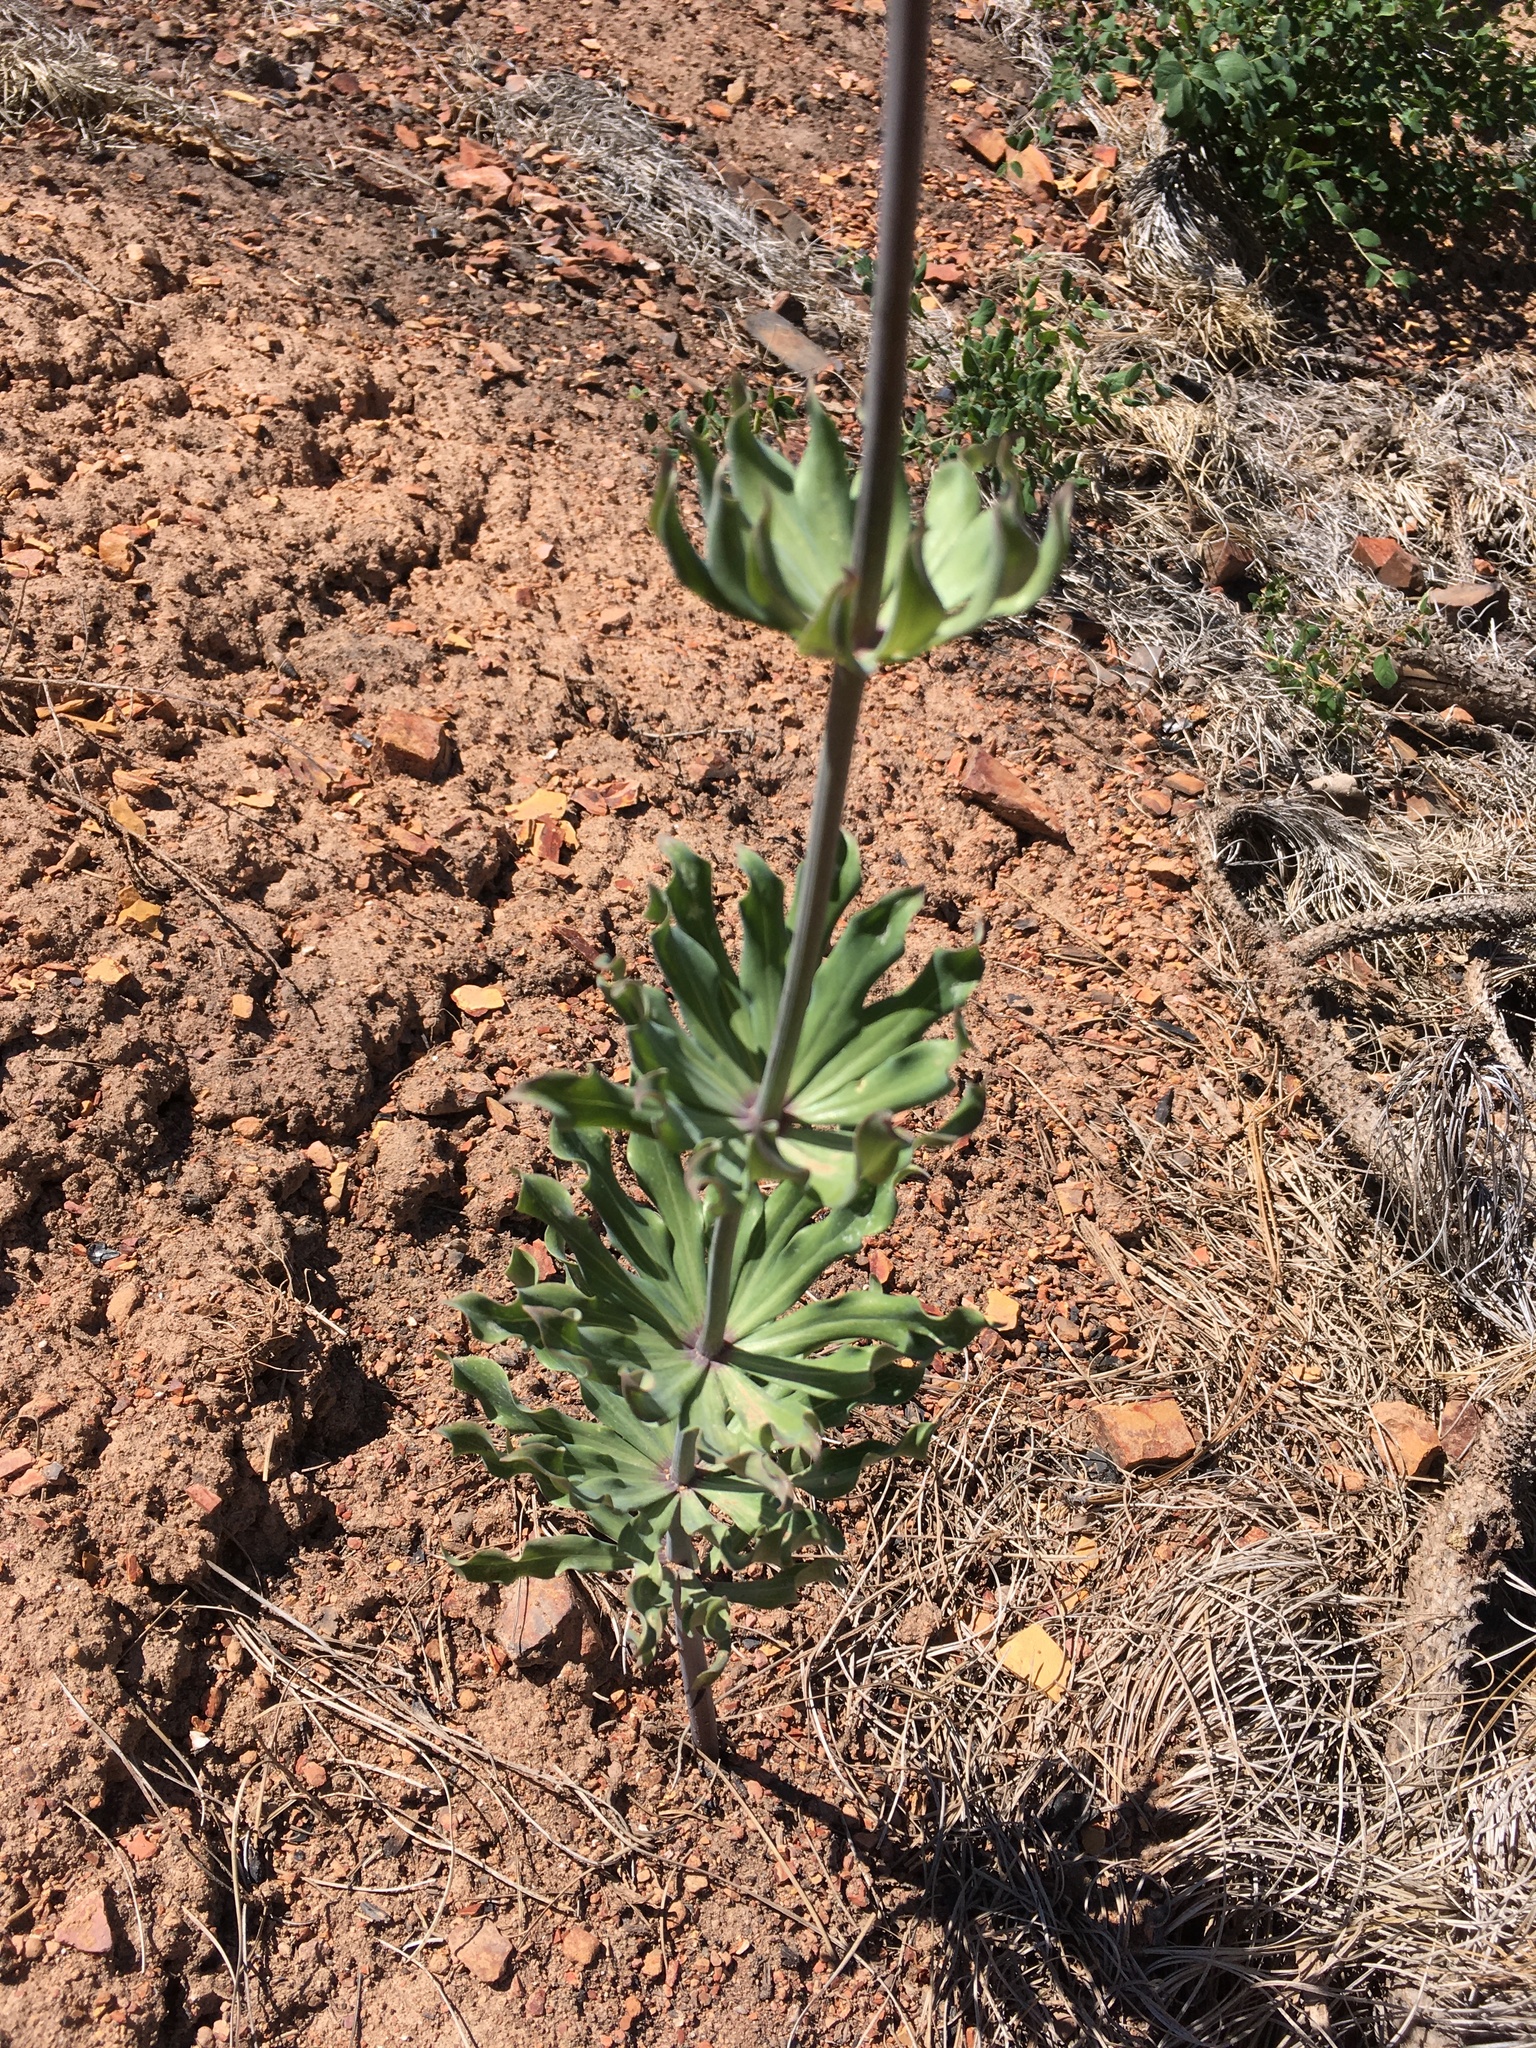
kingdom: Plantae
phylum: Tracheophyta
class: Liliopsida
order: Liliales
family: Liliaceae
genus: Lilium
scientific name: Lilium rubescens
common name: Chamise lily
